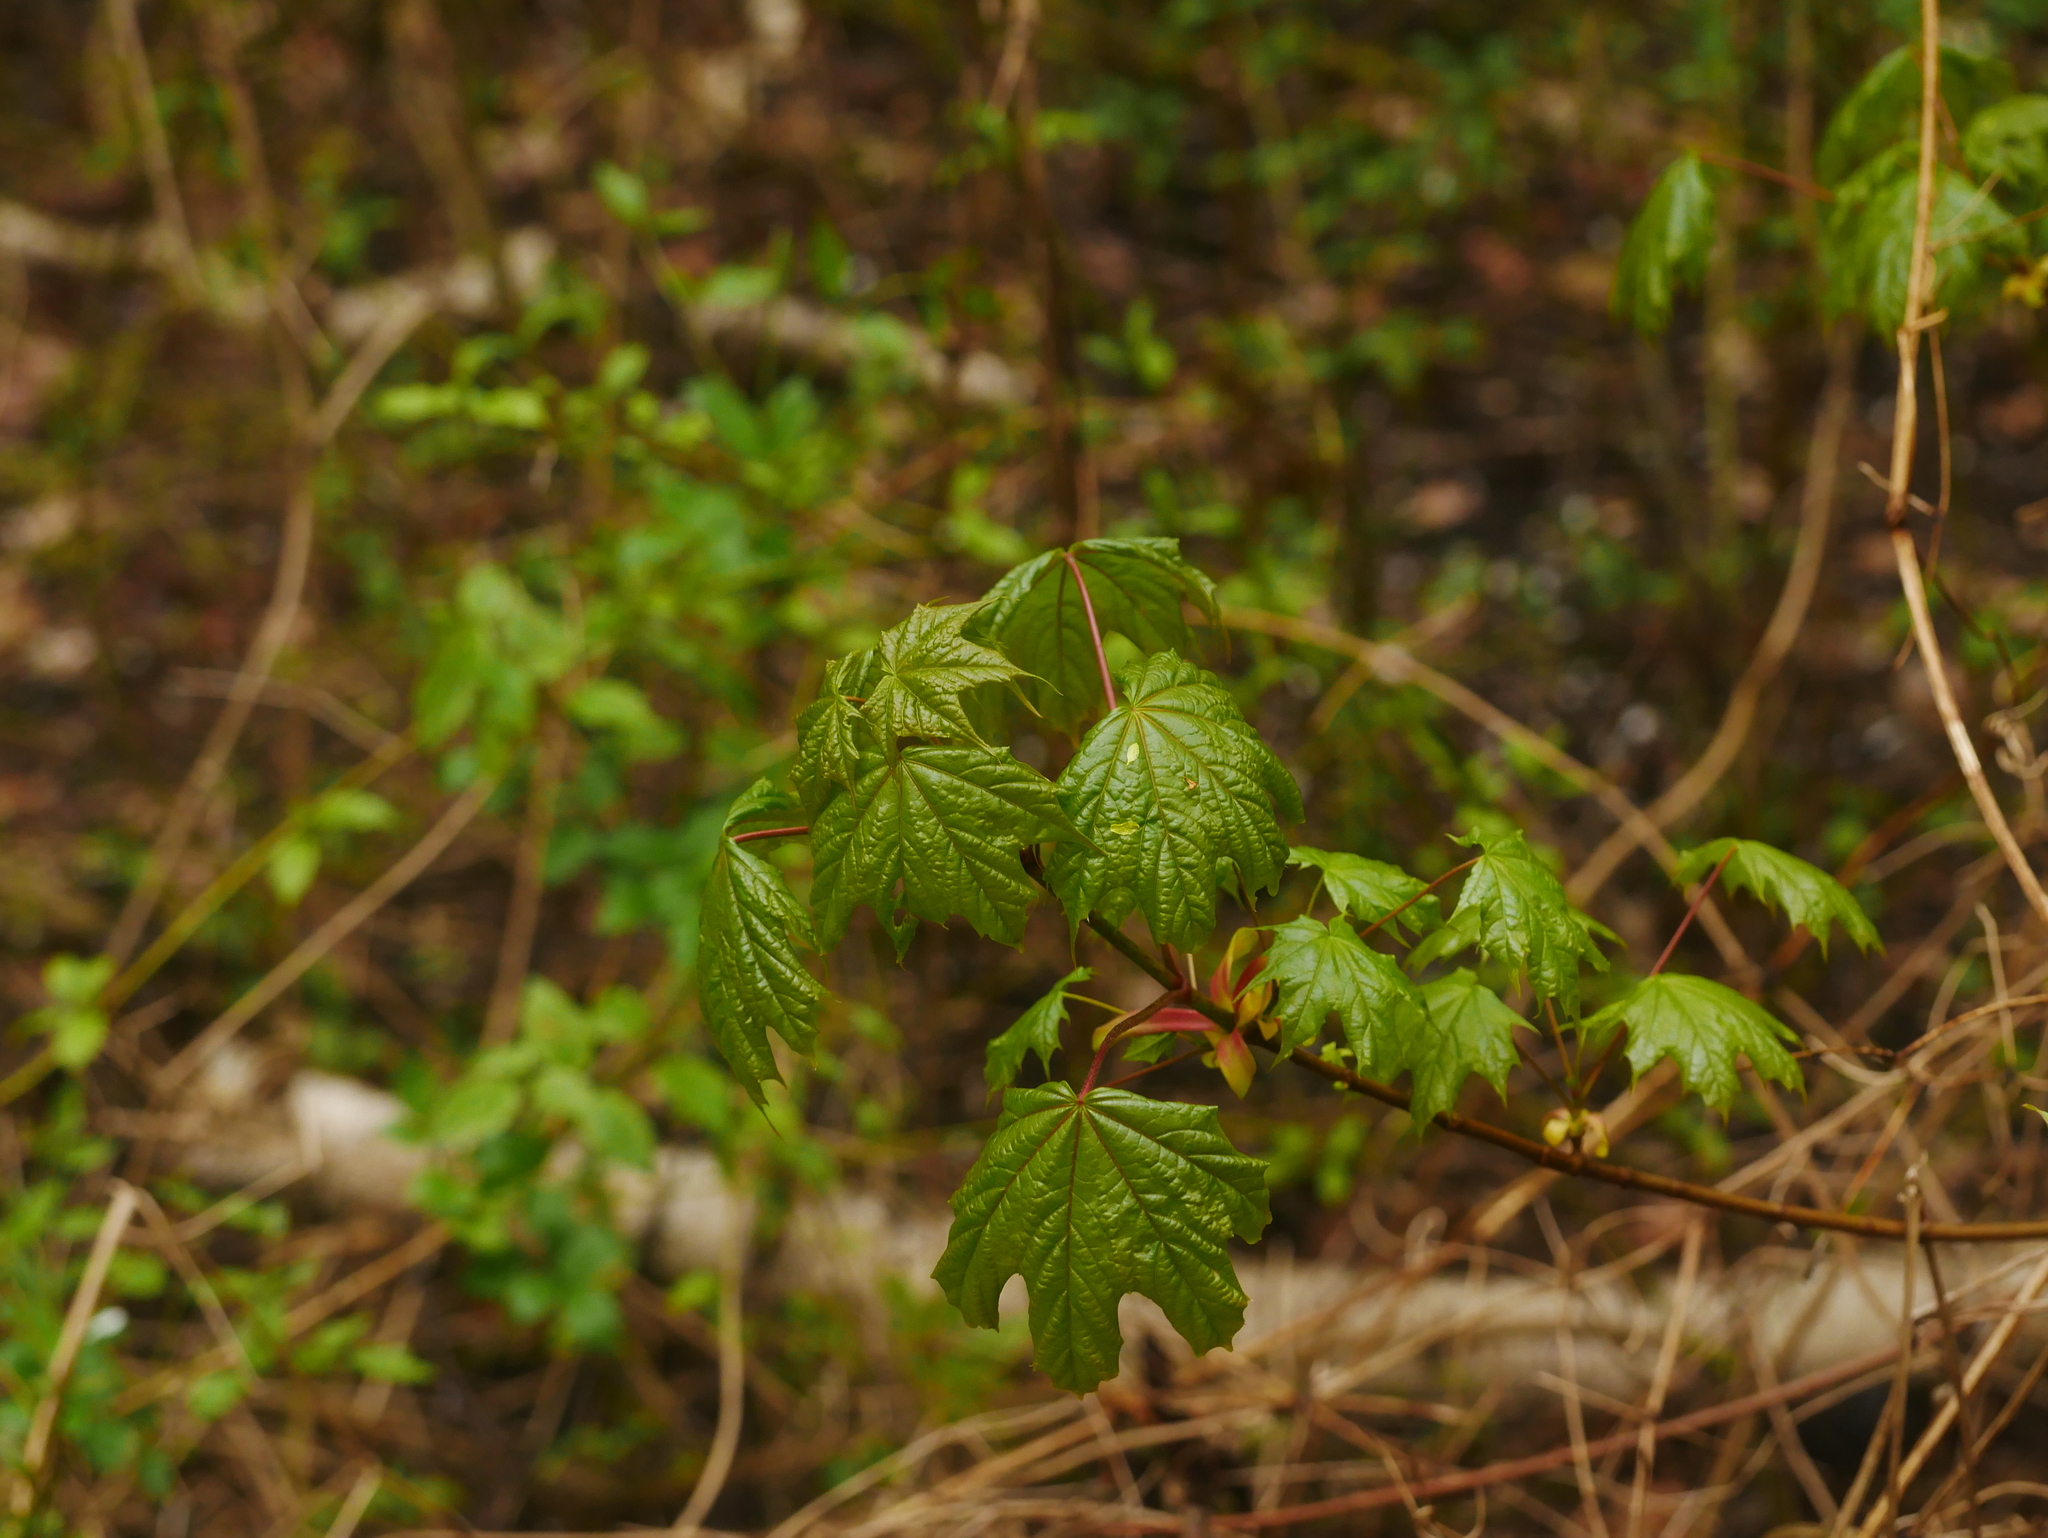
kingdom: Plantae
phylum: Tracheophyta
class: Magnoliopsida
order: Sapindales
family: Sapindaceae
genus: Acer
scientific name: Acer platanoides
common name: Norway maple
